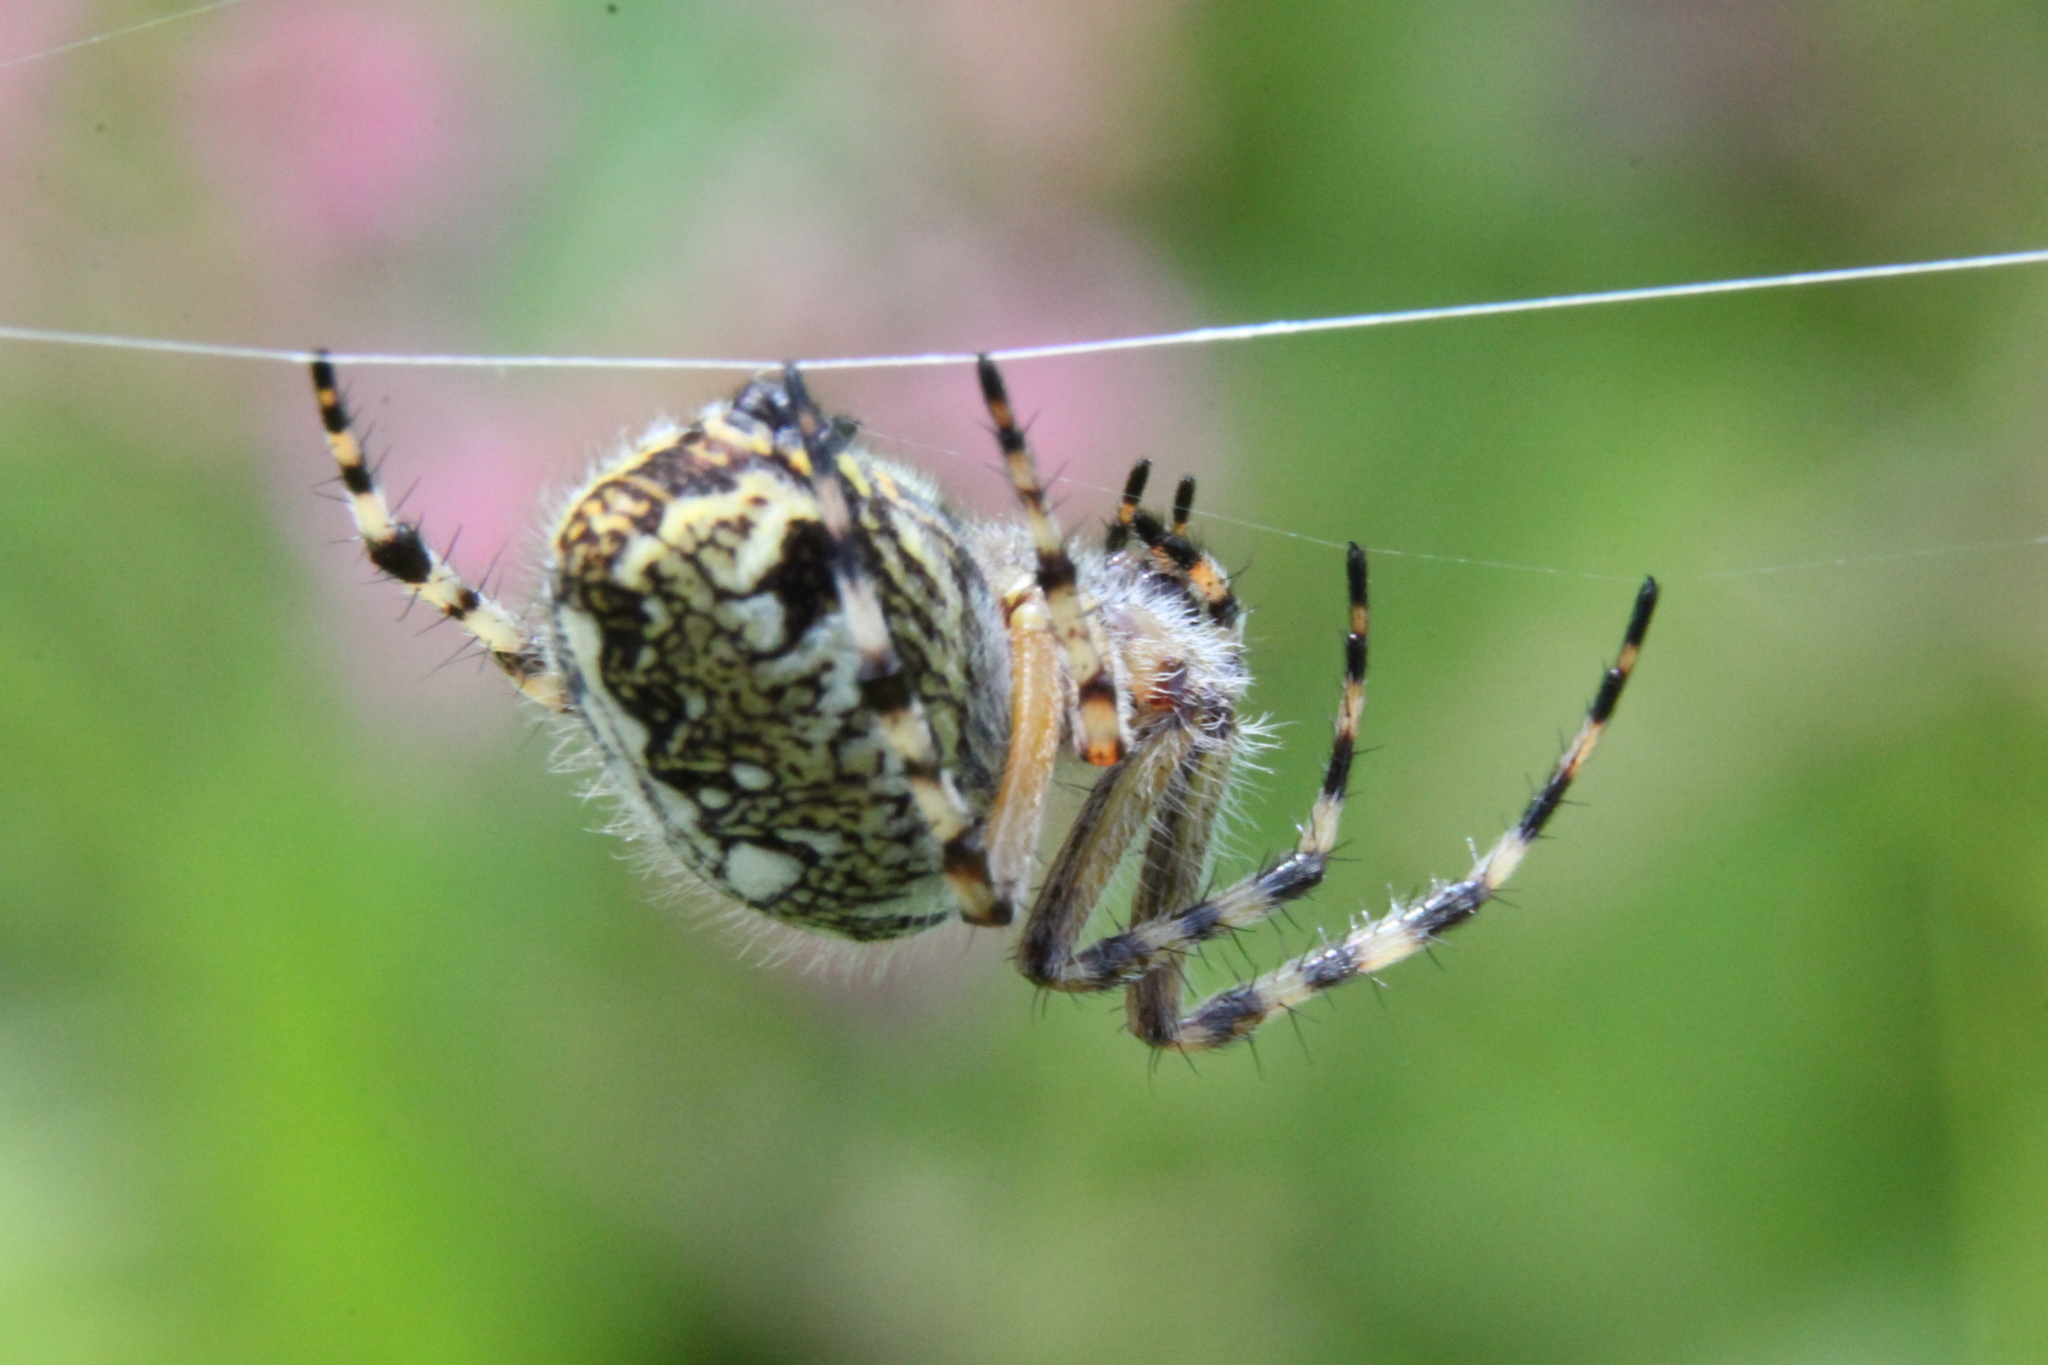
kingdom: Animalia
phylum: Arthropoda
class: Arachnida
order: Araneae
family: Araneidae
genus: Aculepeira
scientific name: Aculepeira ceropegia
